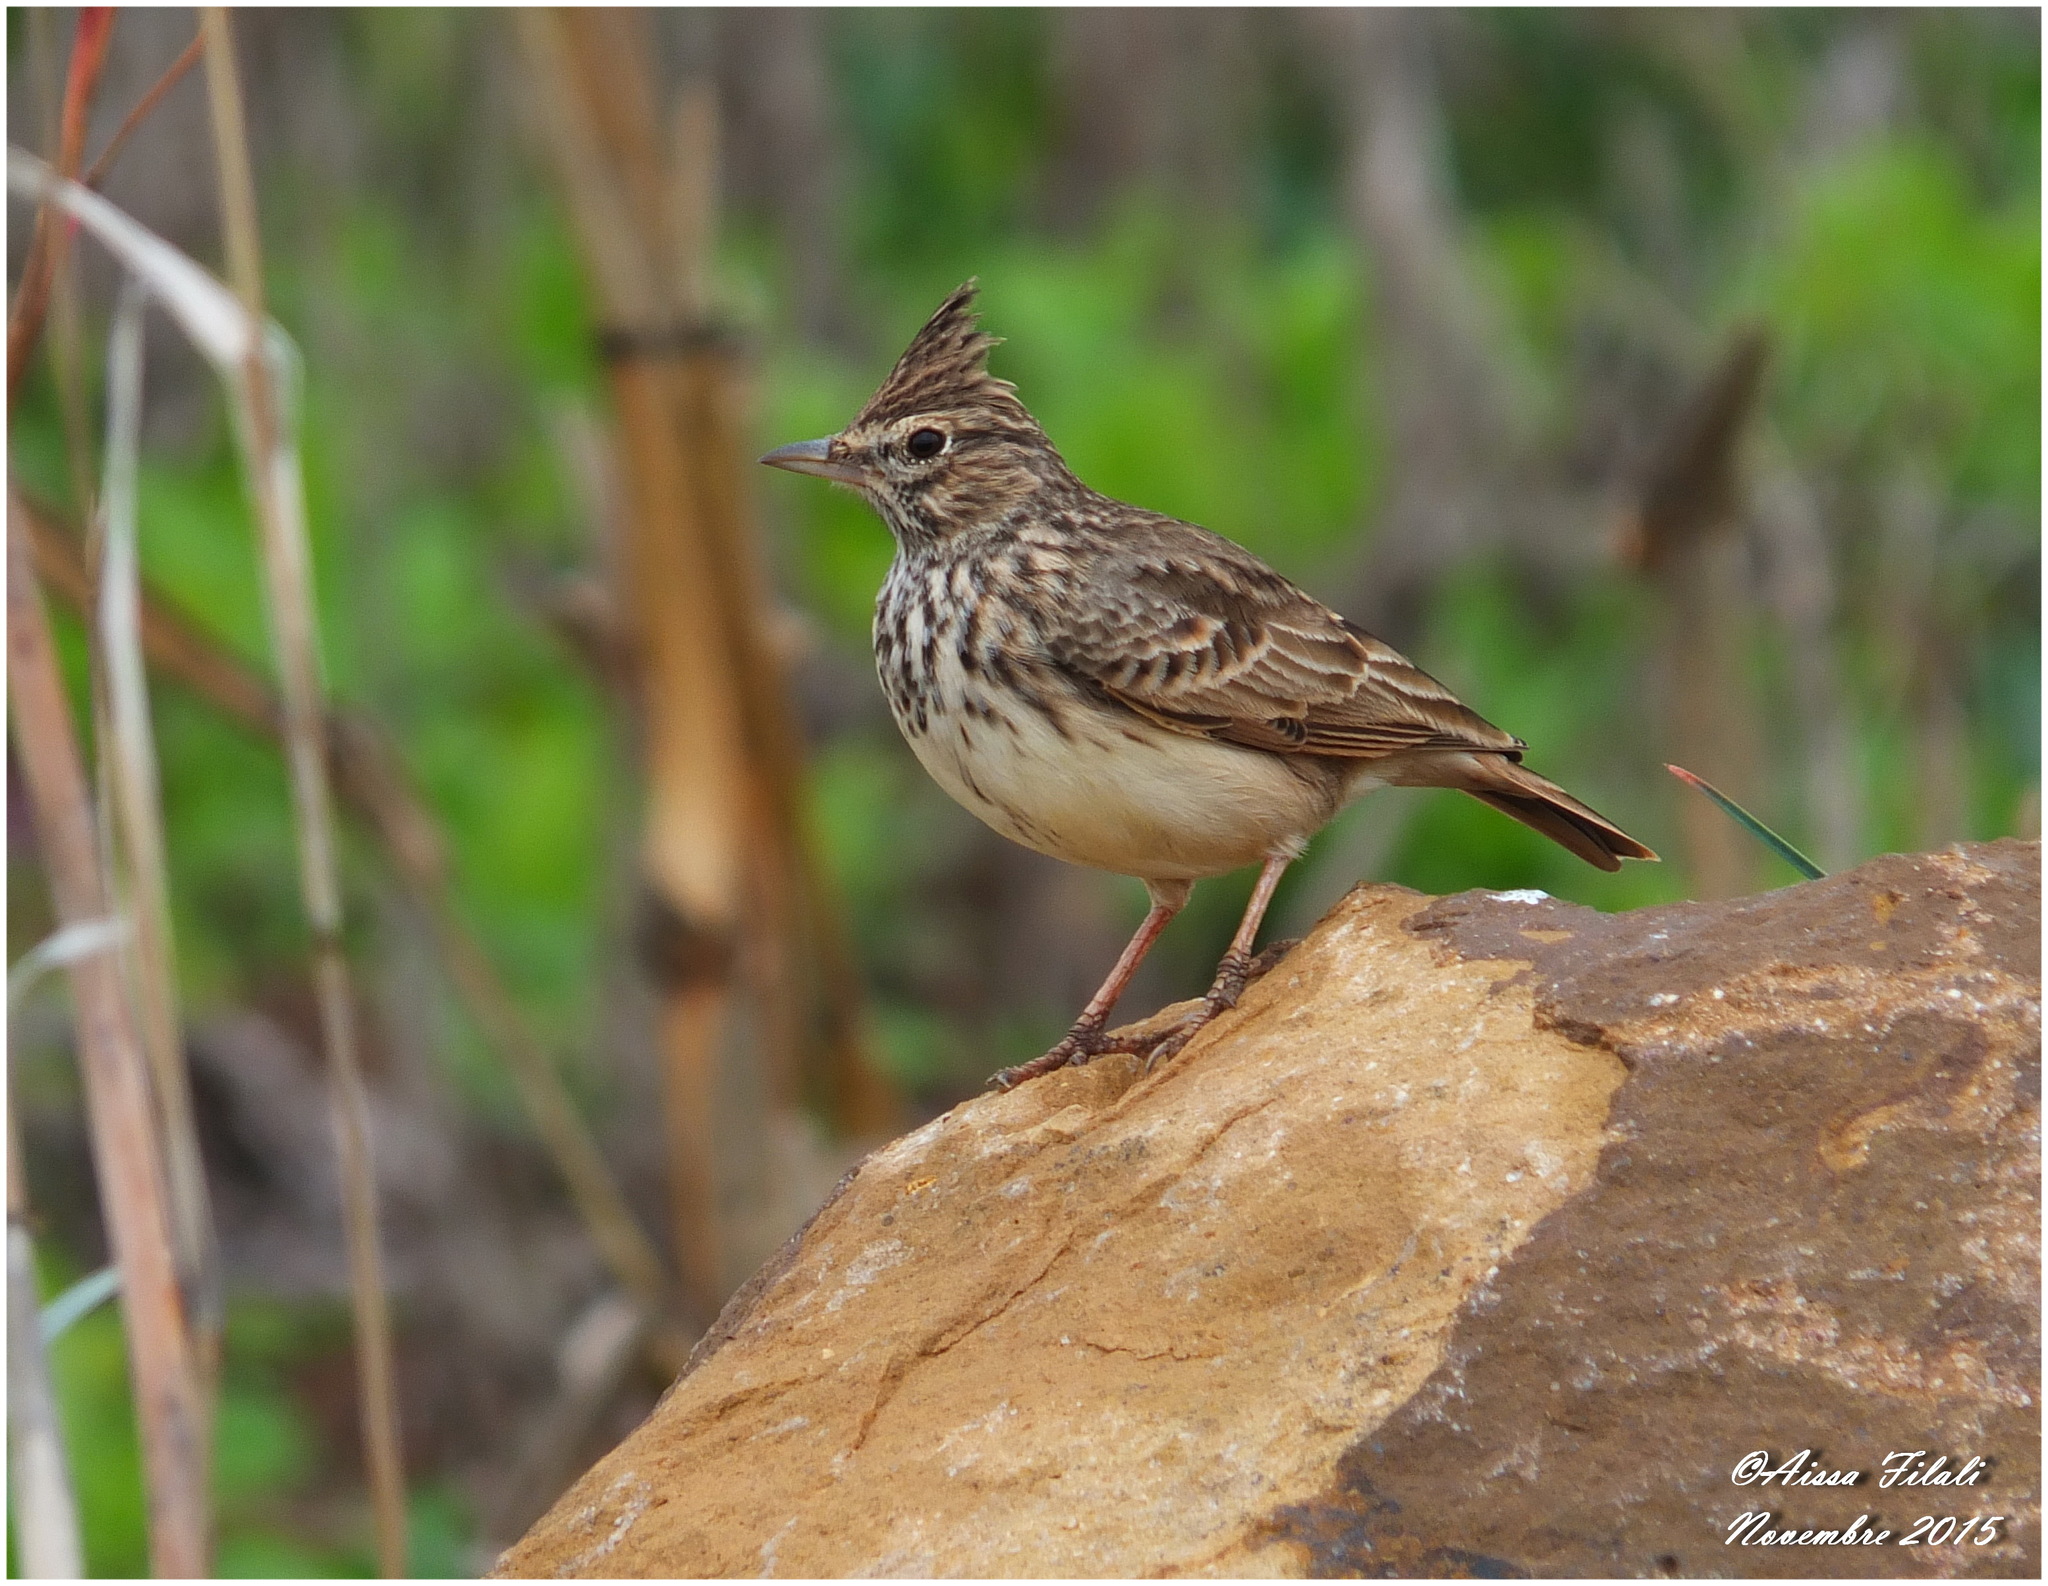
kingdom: Animalia
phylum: Chordata
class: Aves
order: Passeriformes
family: Alaudidae
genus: Galerida
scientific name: Galerida theklae
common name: Thekla lark
